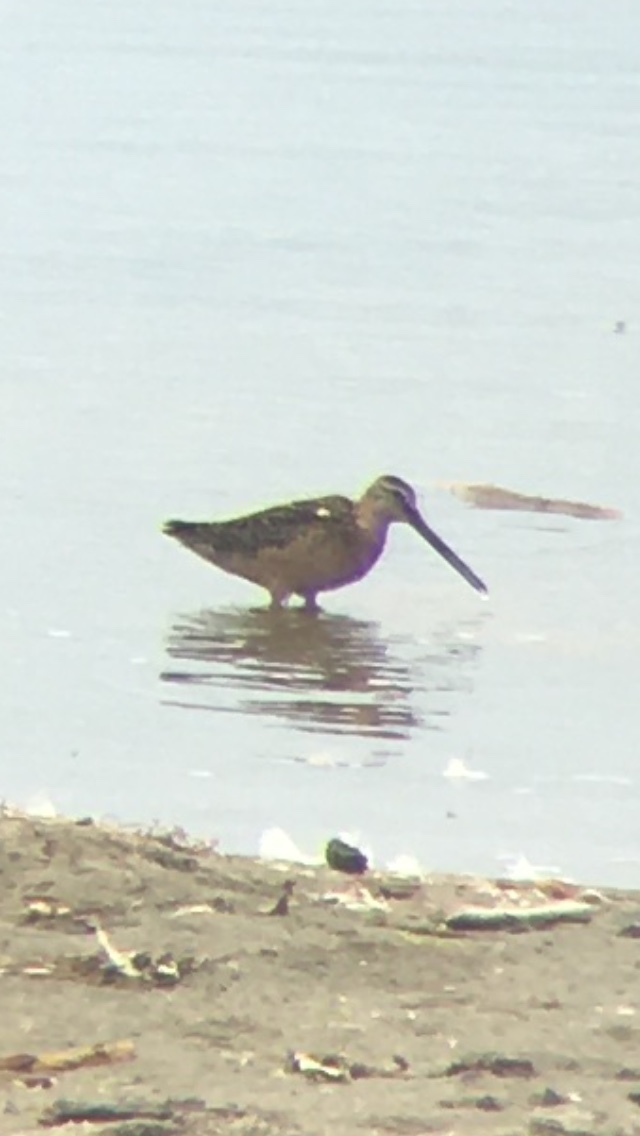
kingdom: Animalia
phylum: Chordata
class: Aves
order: Charadriiformes
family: Scolopacidae
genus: Limnodromus
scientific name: Limnodromus
